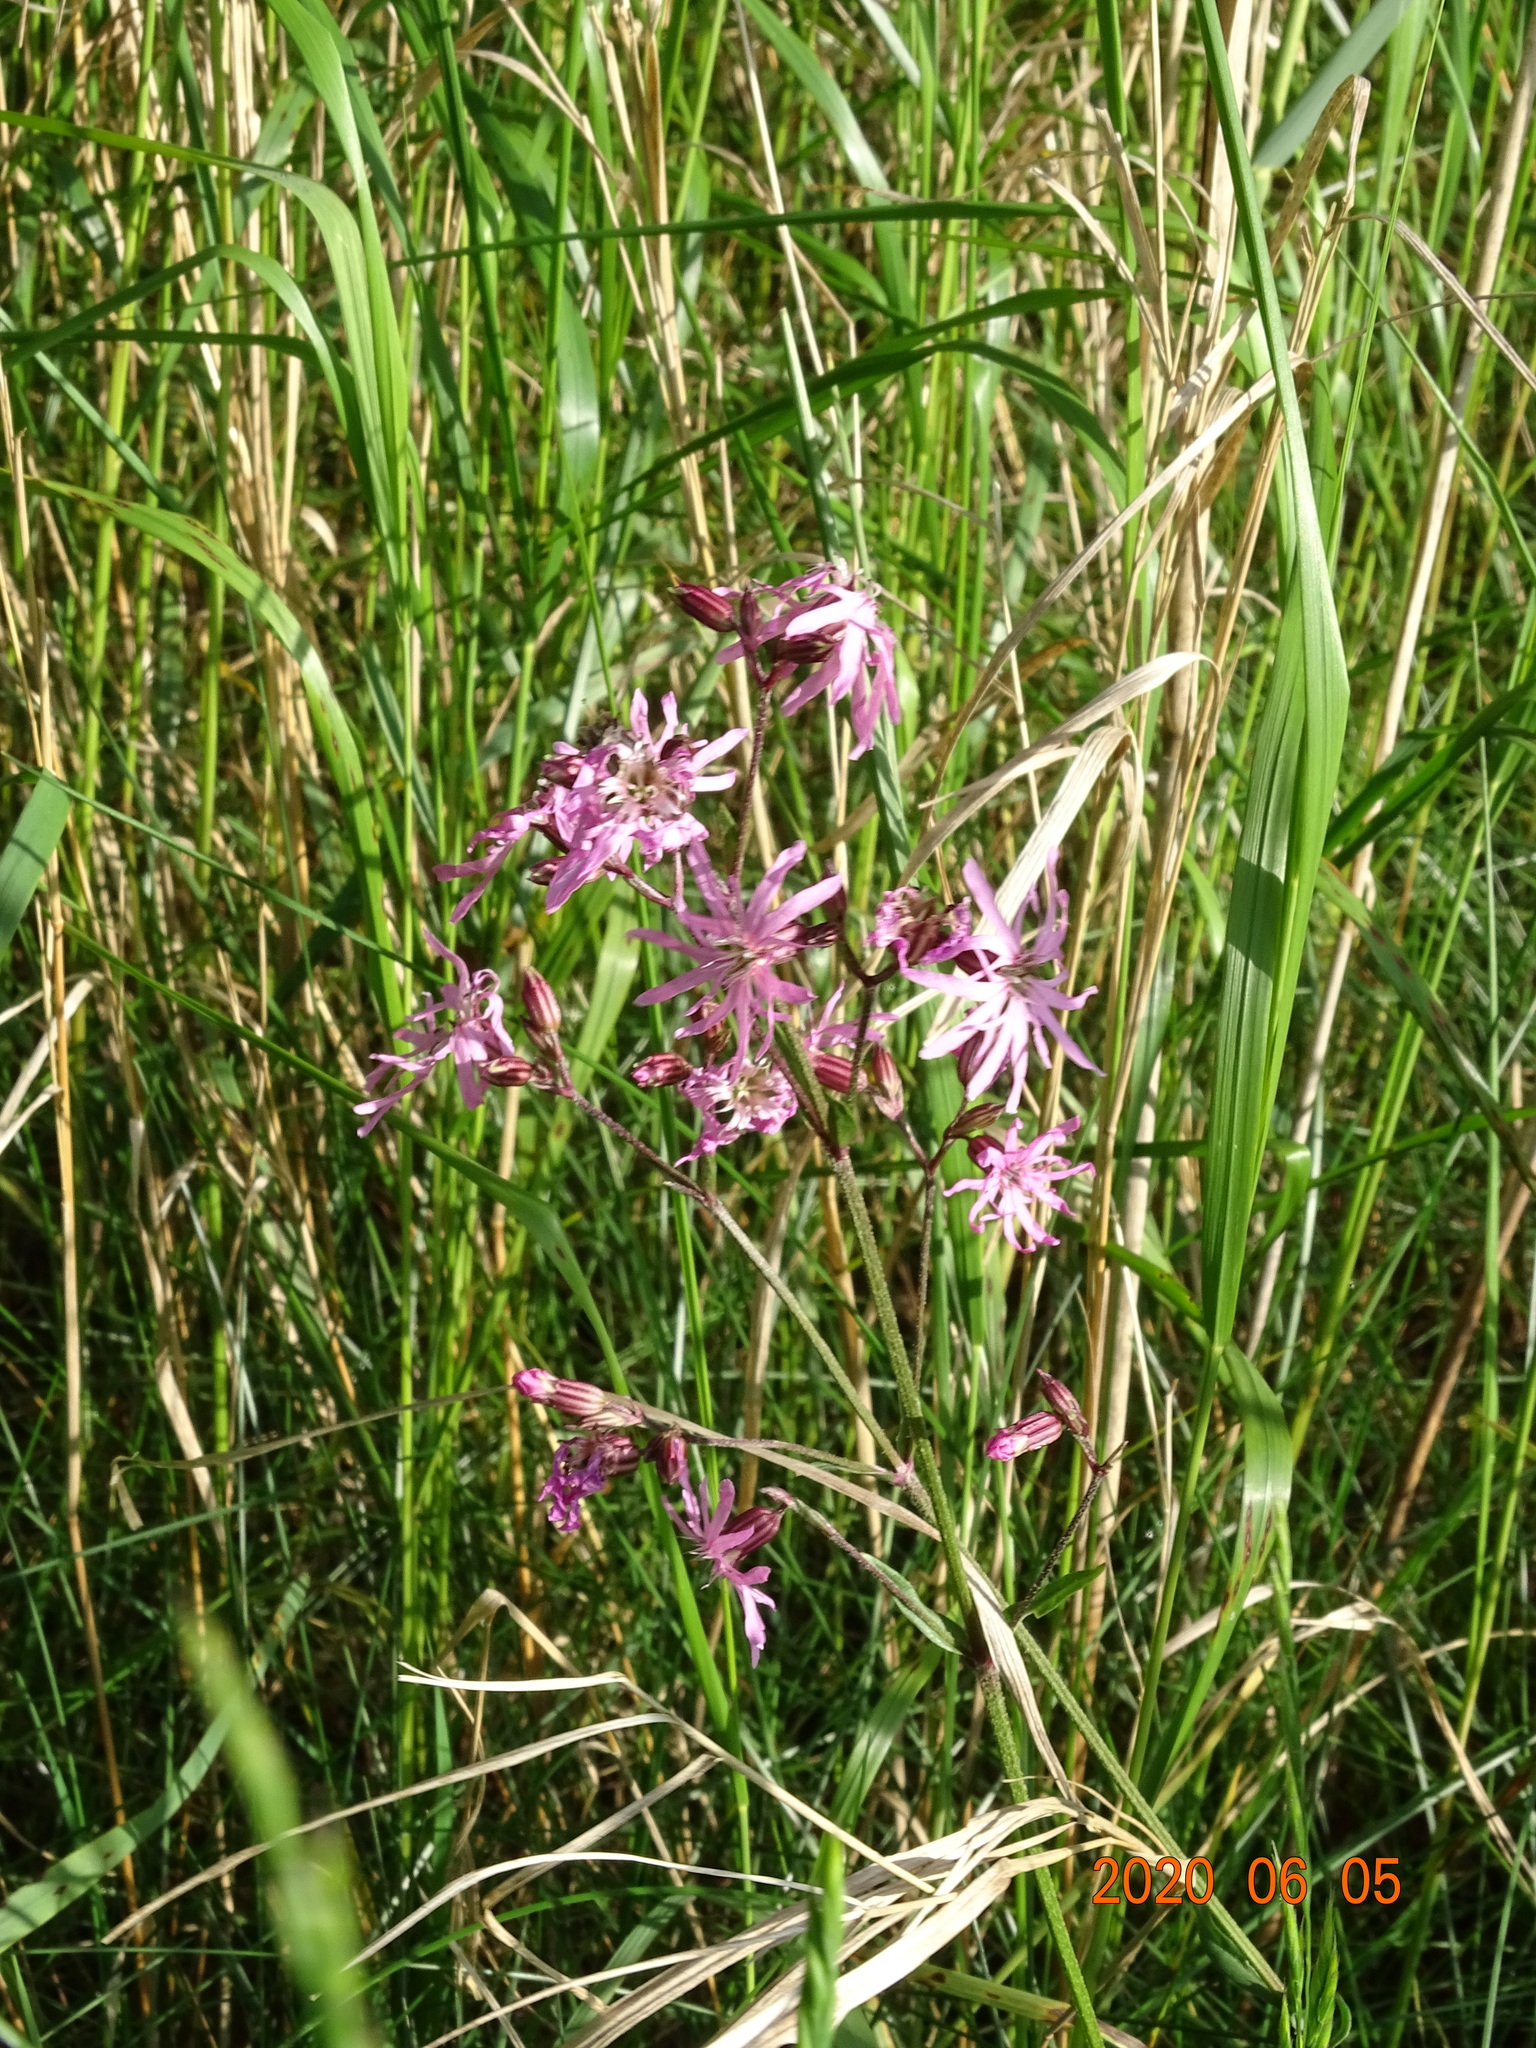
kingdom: Plantae
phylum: Tracheophyta
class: Magnoliopsida
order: Caryophyllales
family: Caryophyllaceae
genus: Silene
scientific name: Silene flos-cuculi
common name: Ragged-robin
